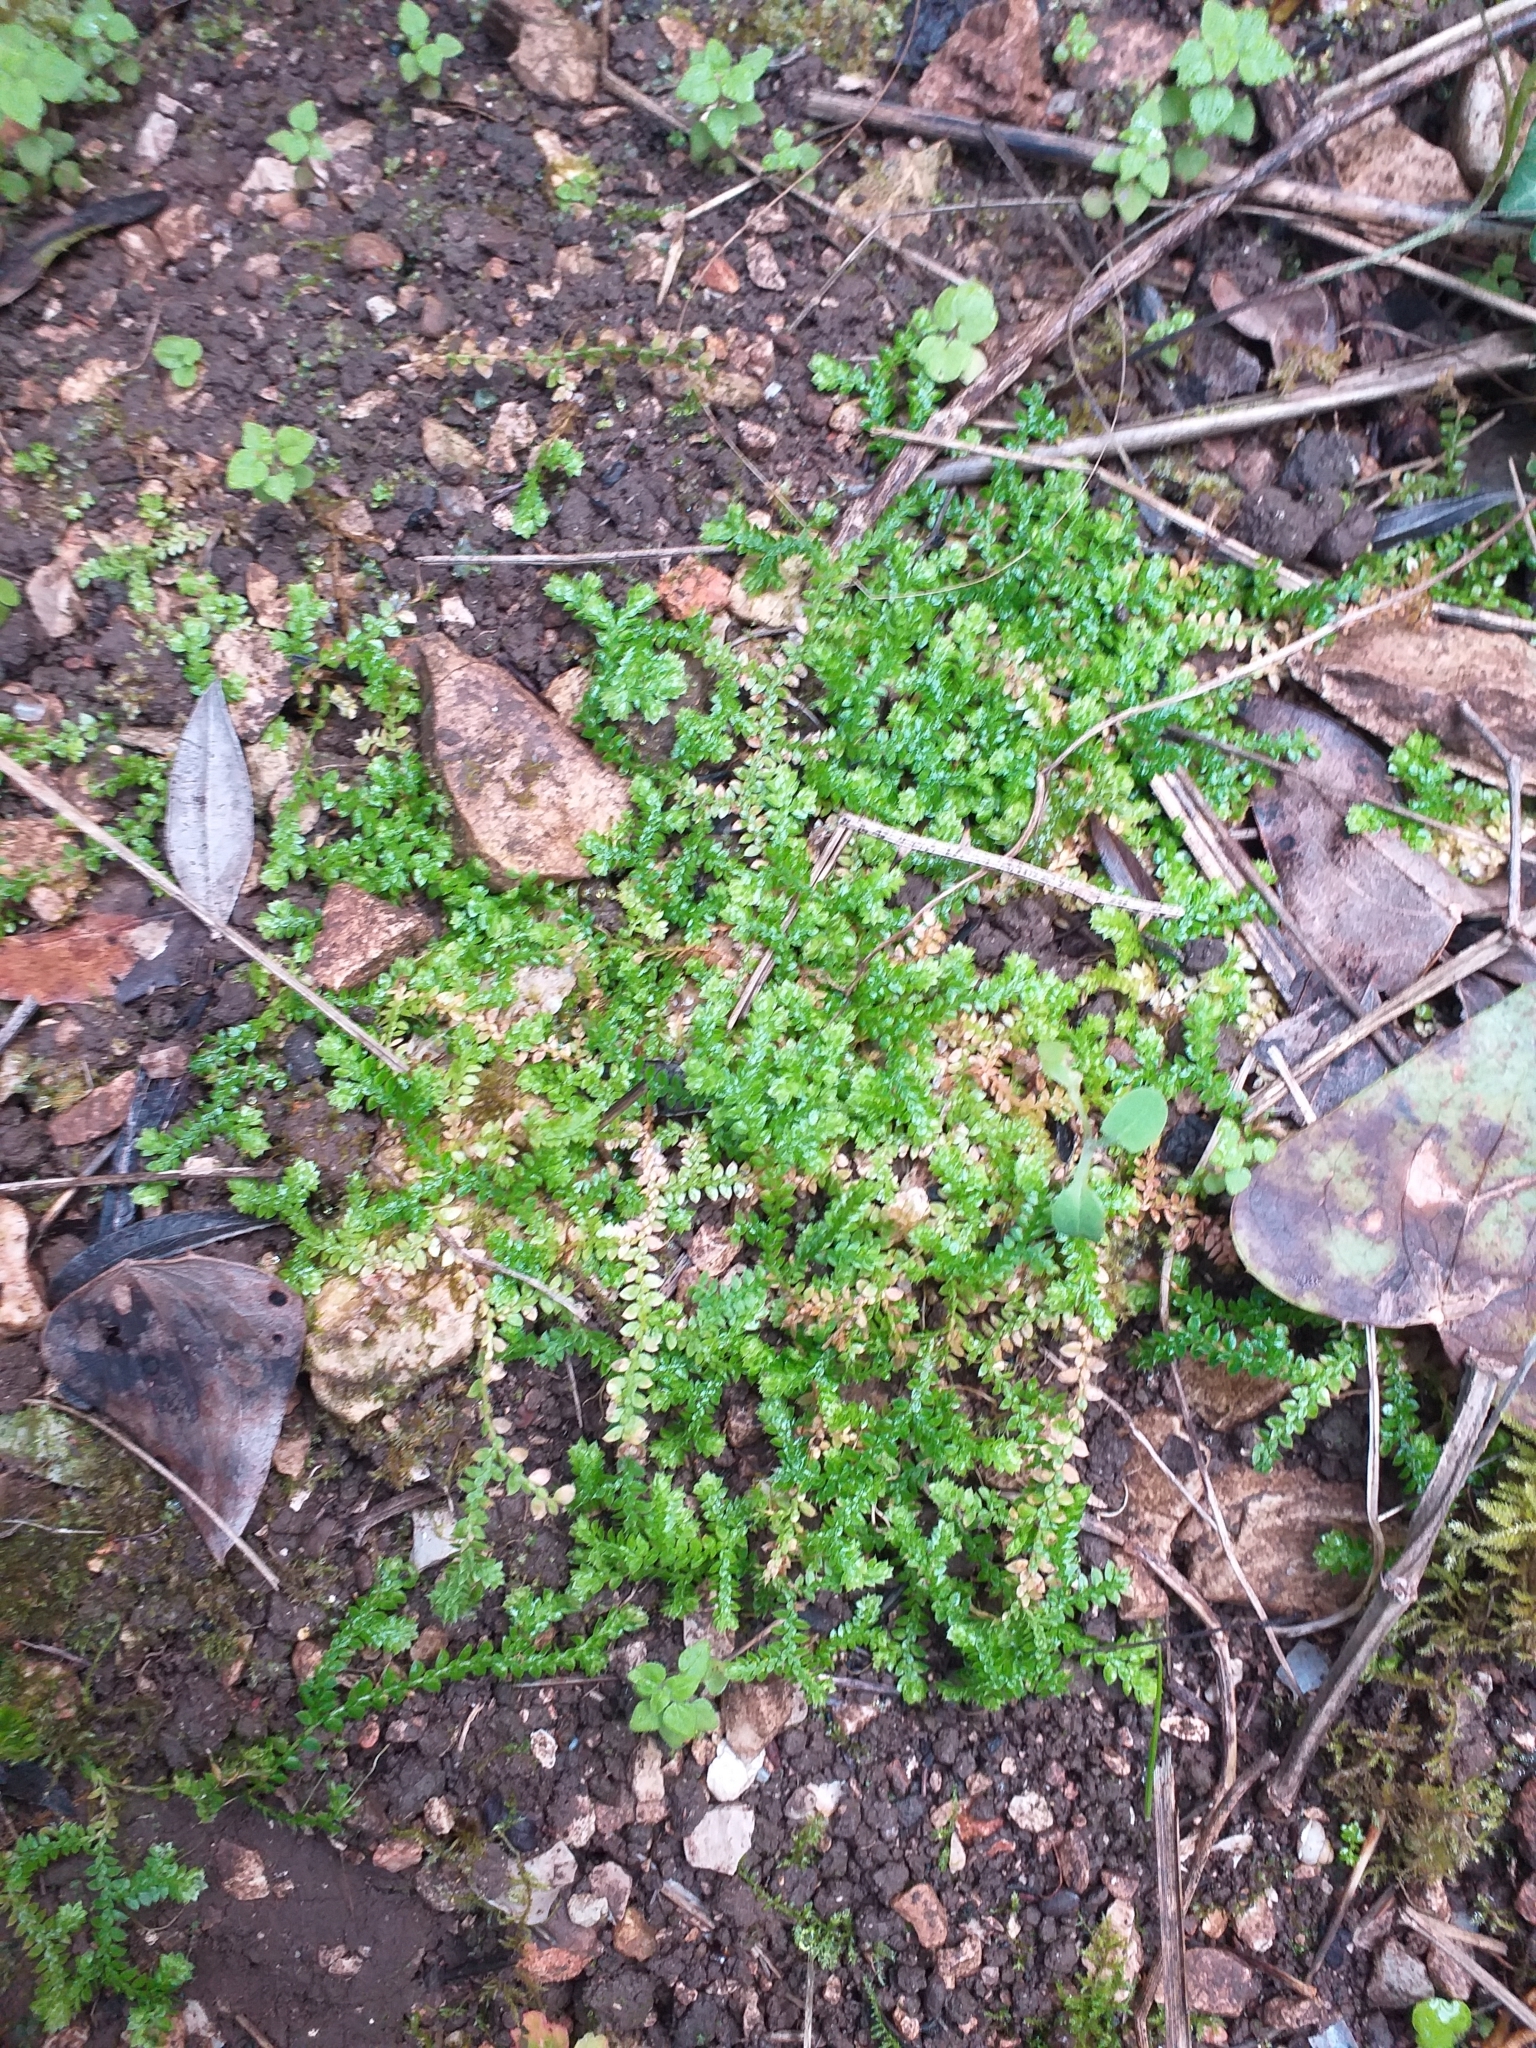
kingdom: Plantae
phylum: Tracheophyta
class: Lycopodiopsida
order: Selaginellales
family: Selaginellaceae
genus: Selaginella
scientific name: Selaginella denticulata
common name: Toothed-leaved clubmoss
